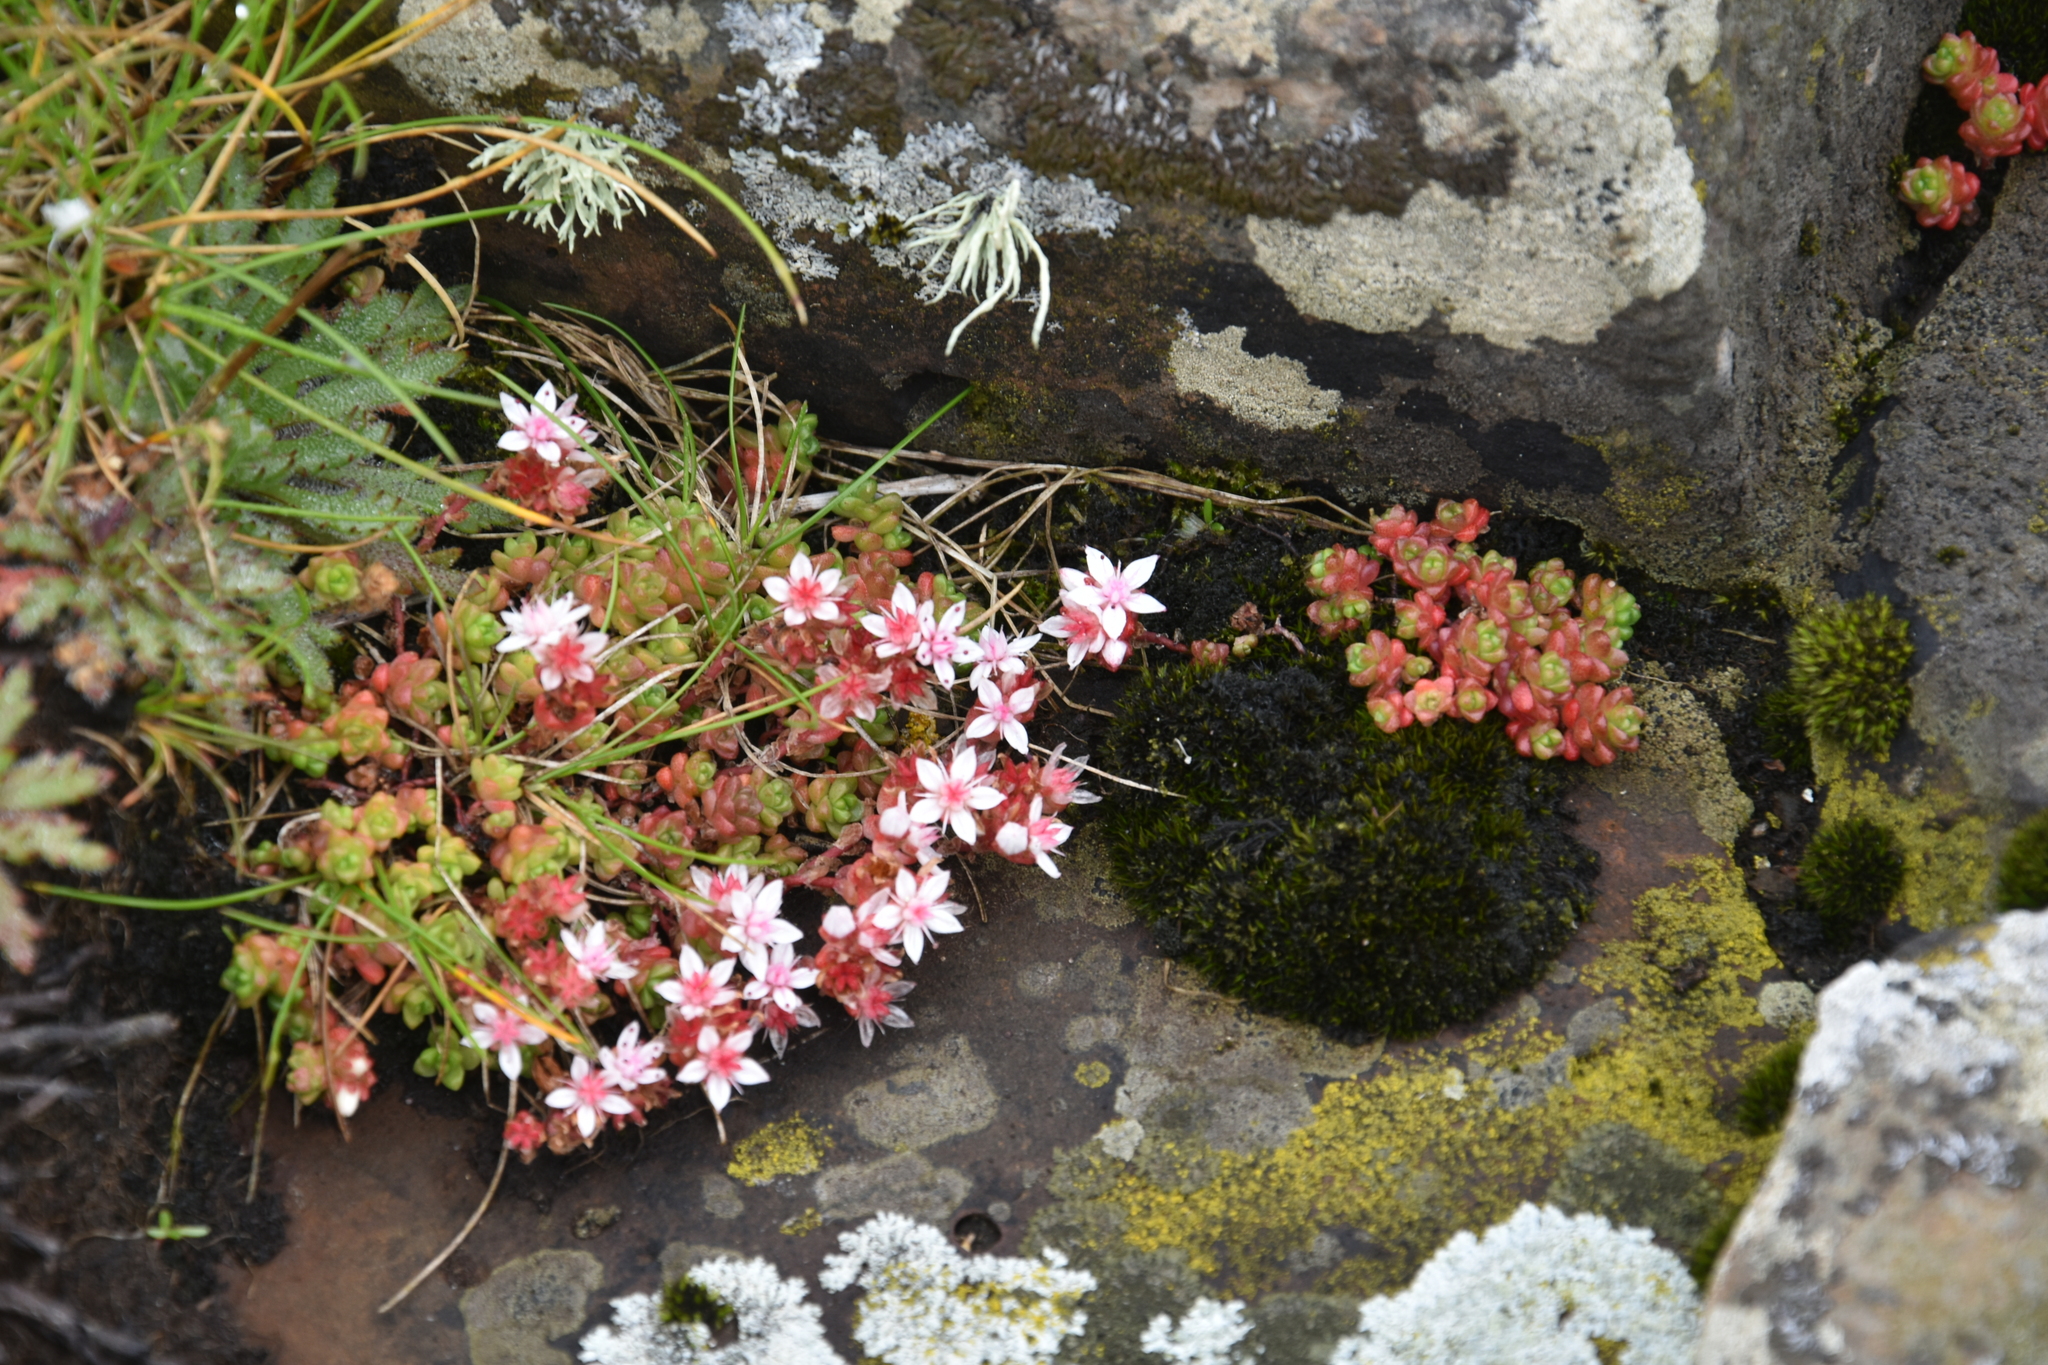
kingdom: Plantae
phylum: Tracheophyta
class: Magnoliopsida
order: Saxifragales
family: Crassulaceae
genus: Sedum
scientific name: Sedum anglicum
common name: English stonecrop
